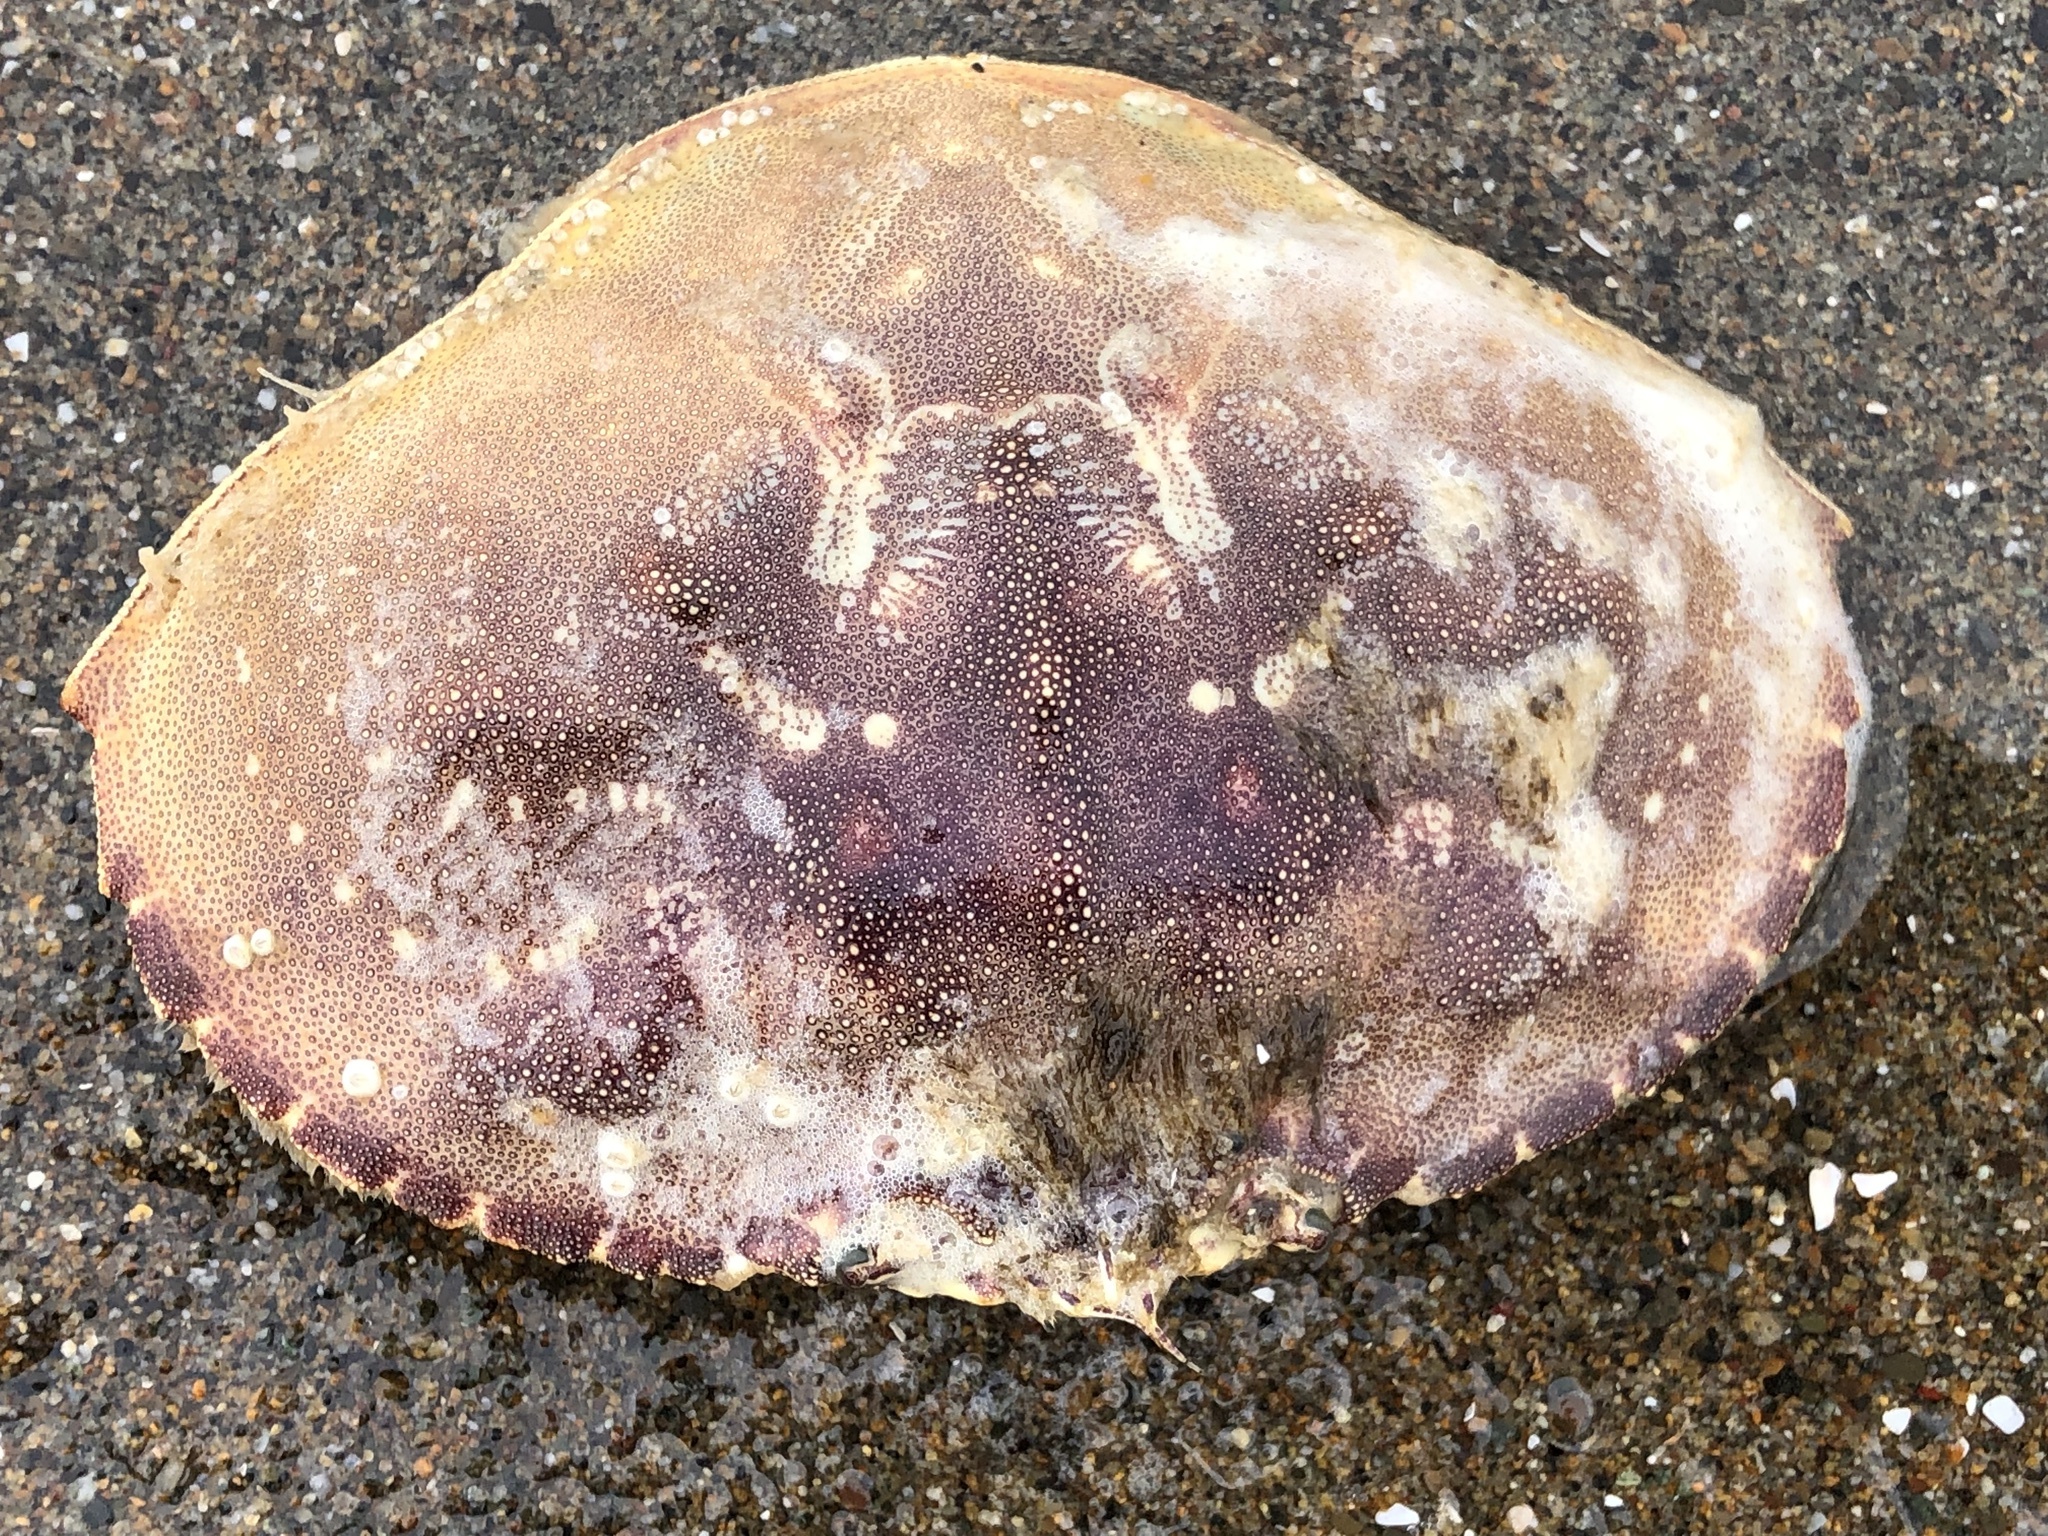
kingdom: Animalia
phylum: Arthropoda
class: Malacostraca
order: Decapoda
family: Cancridae
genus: Metacarcinus
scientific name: Metacarcinus magister
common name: Californian crab
